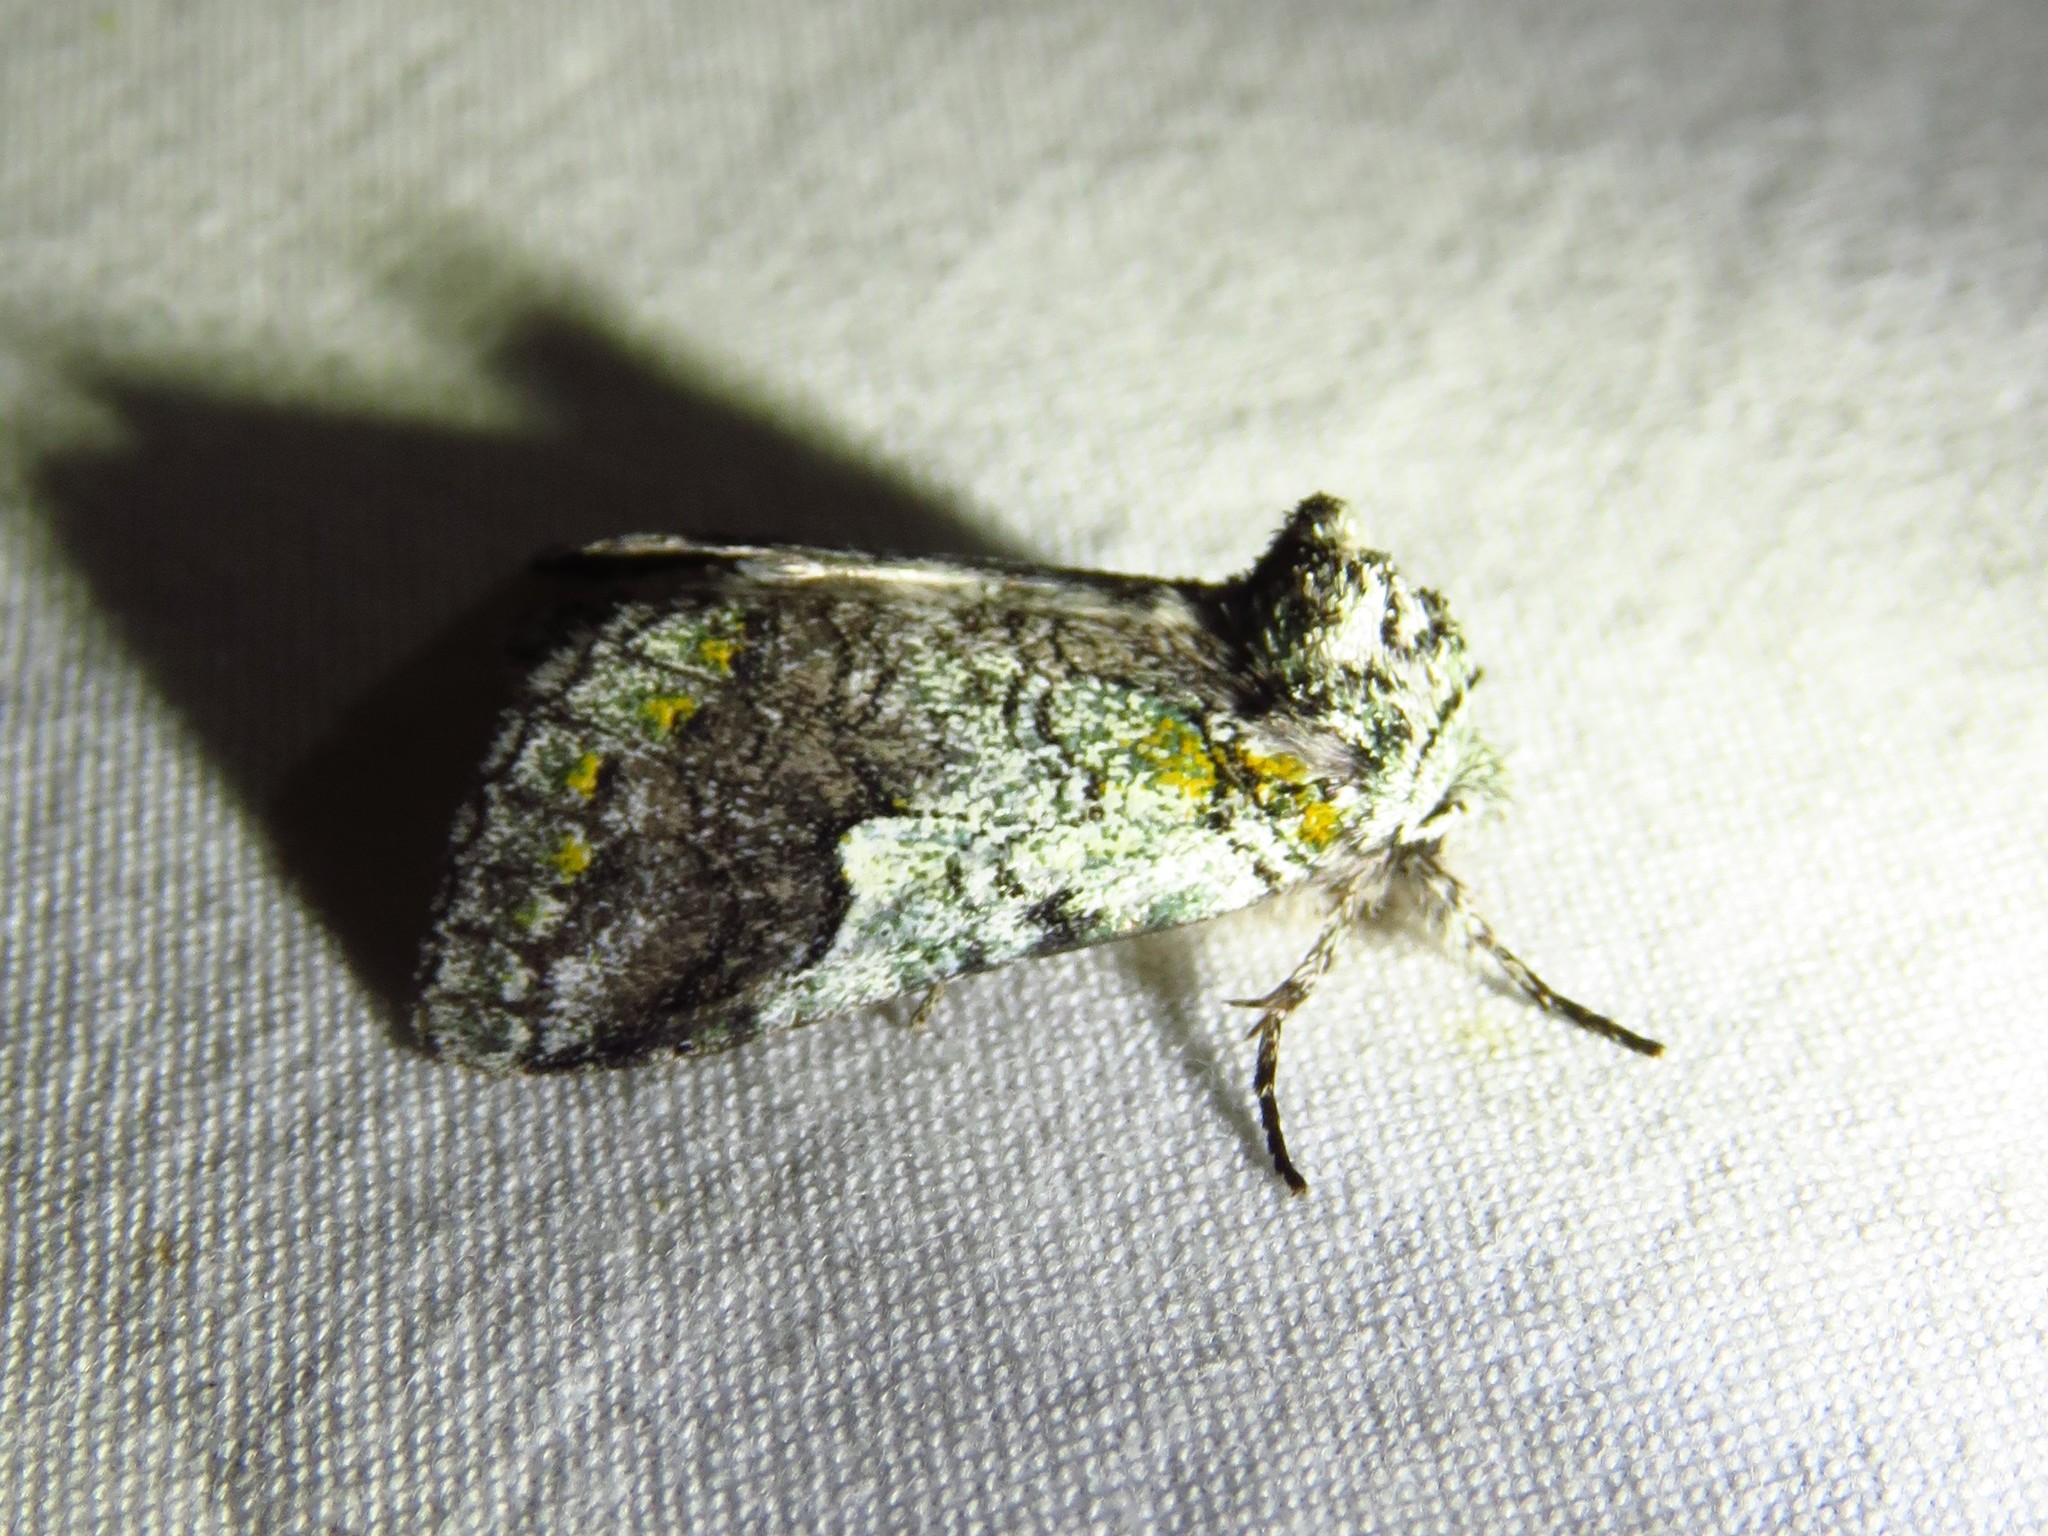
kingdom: Animalia
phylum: Arthropoda
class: Insecta
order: Lepidoptera
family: Notodontidae
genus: Litodonta
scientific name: Litodonta hydromeli
